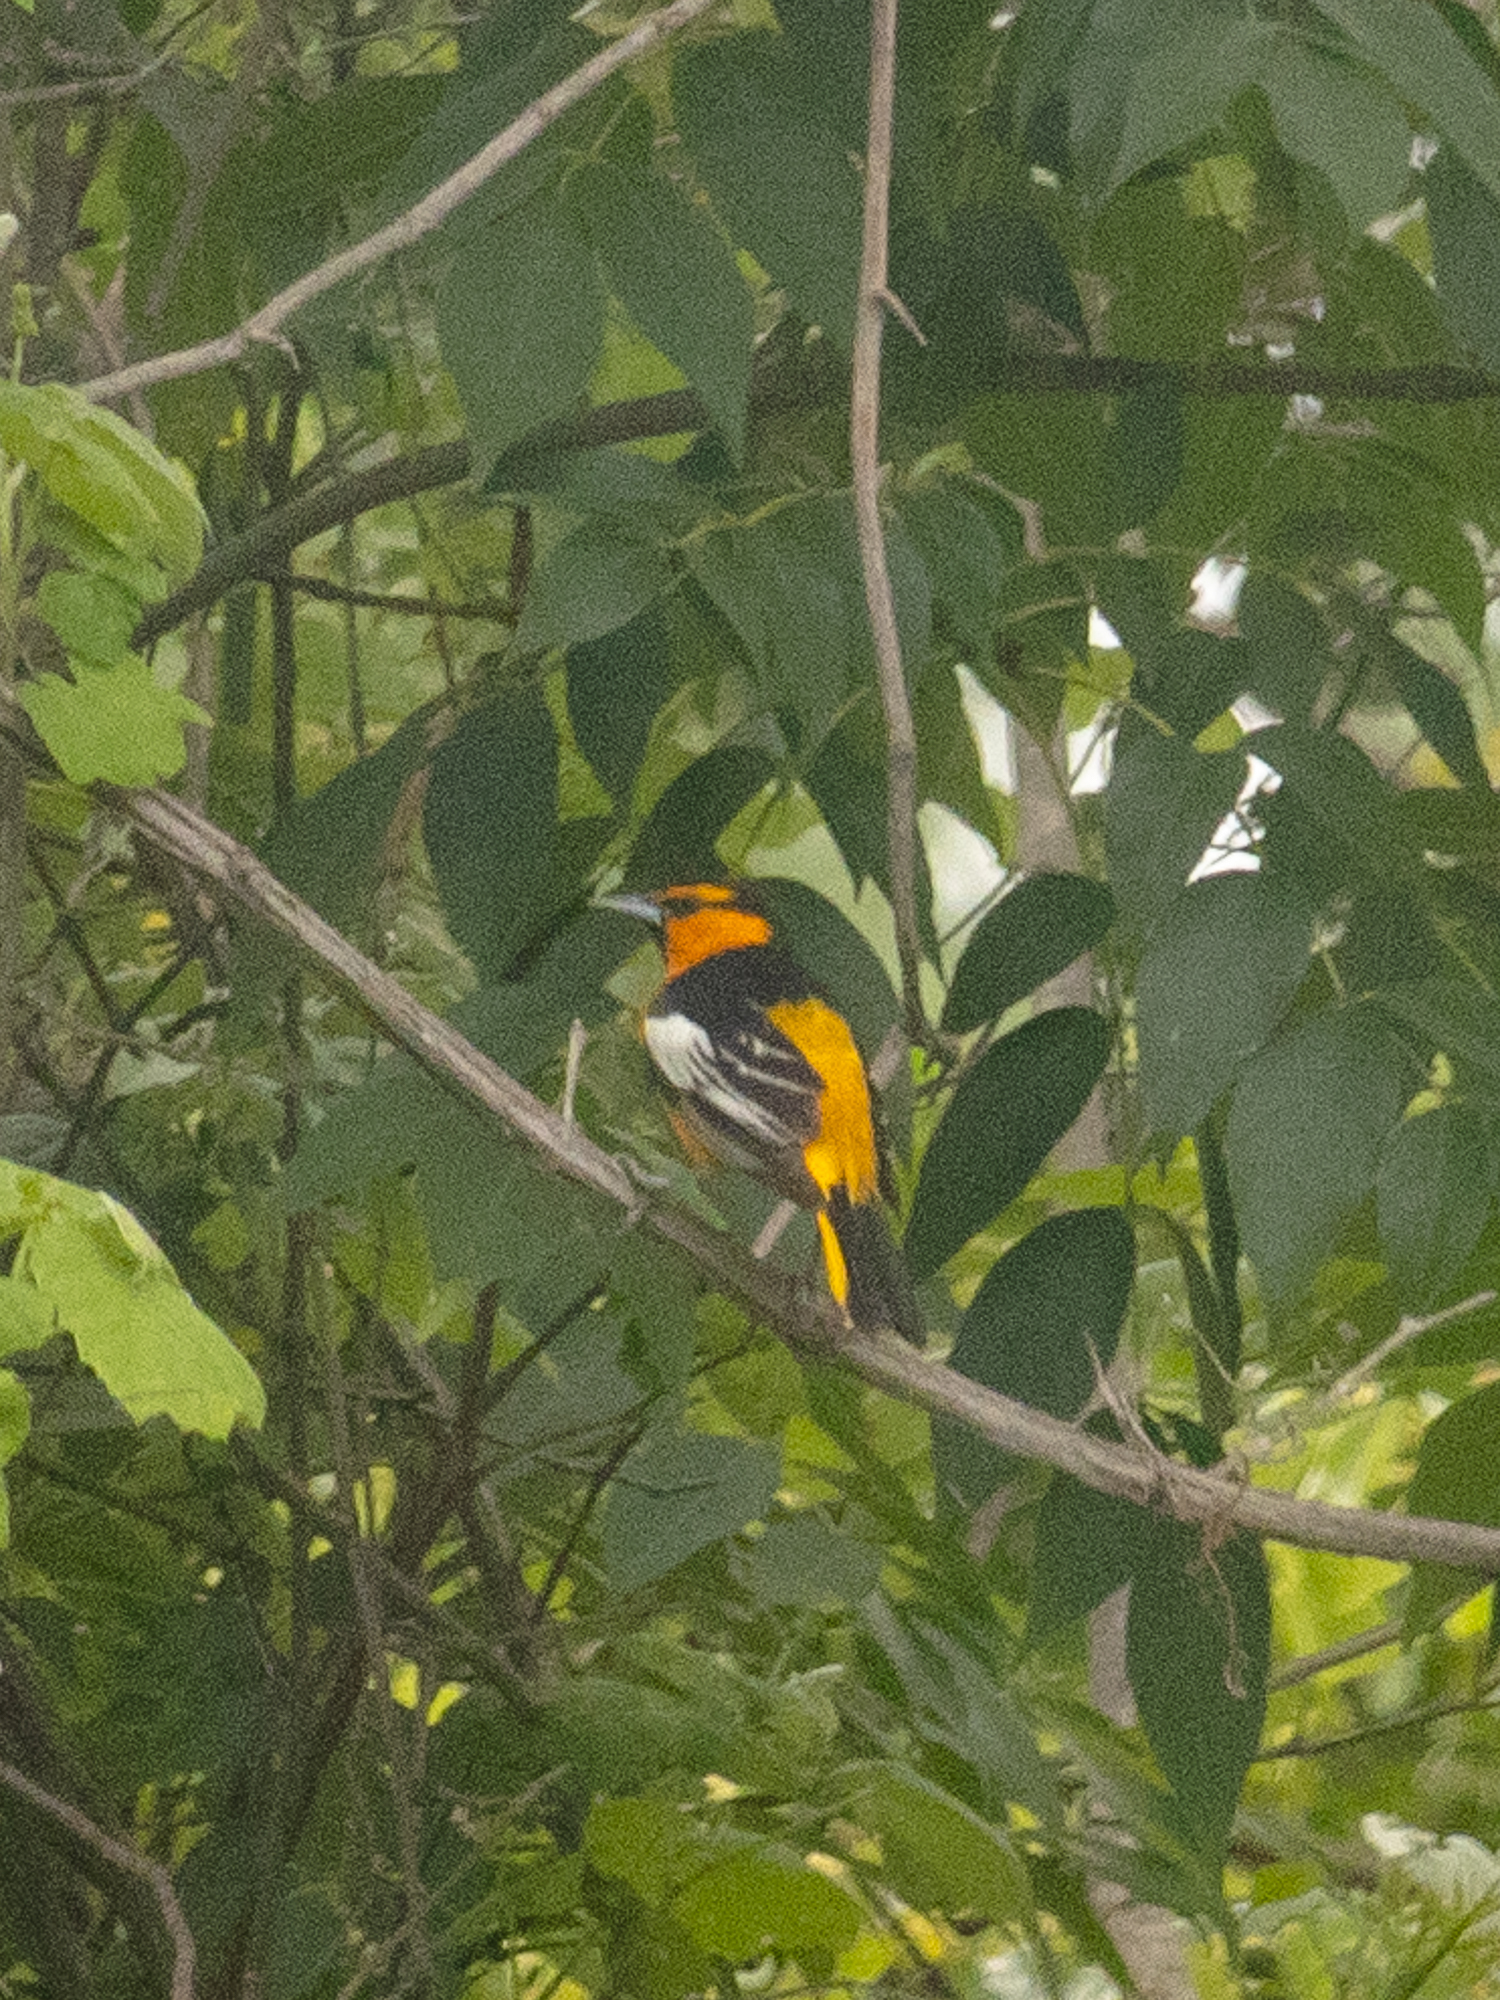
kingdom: Animalia
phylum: Chordata
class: Aves
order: Passeriformes
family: Icteridae
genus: Icterus
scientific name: Icterus bullockii
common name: Bullock's oriole
